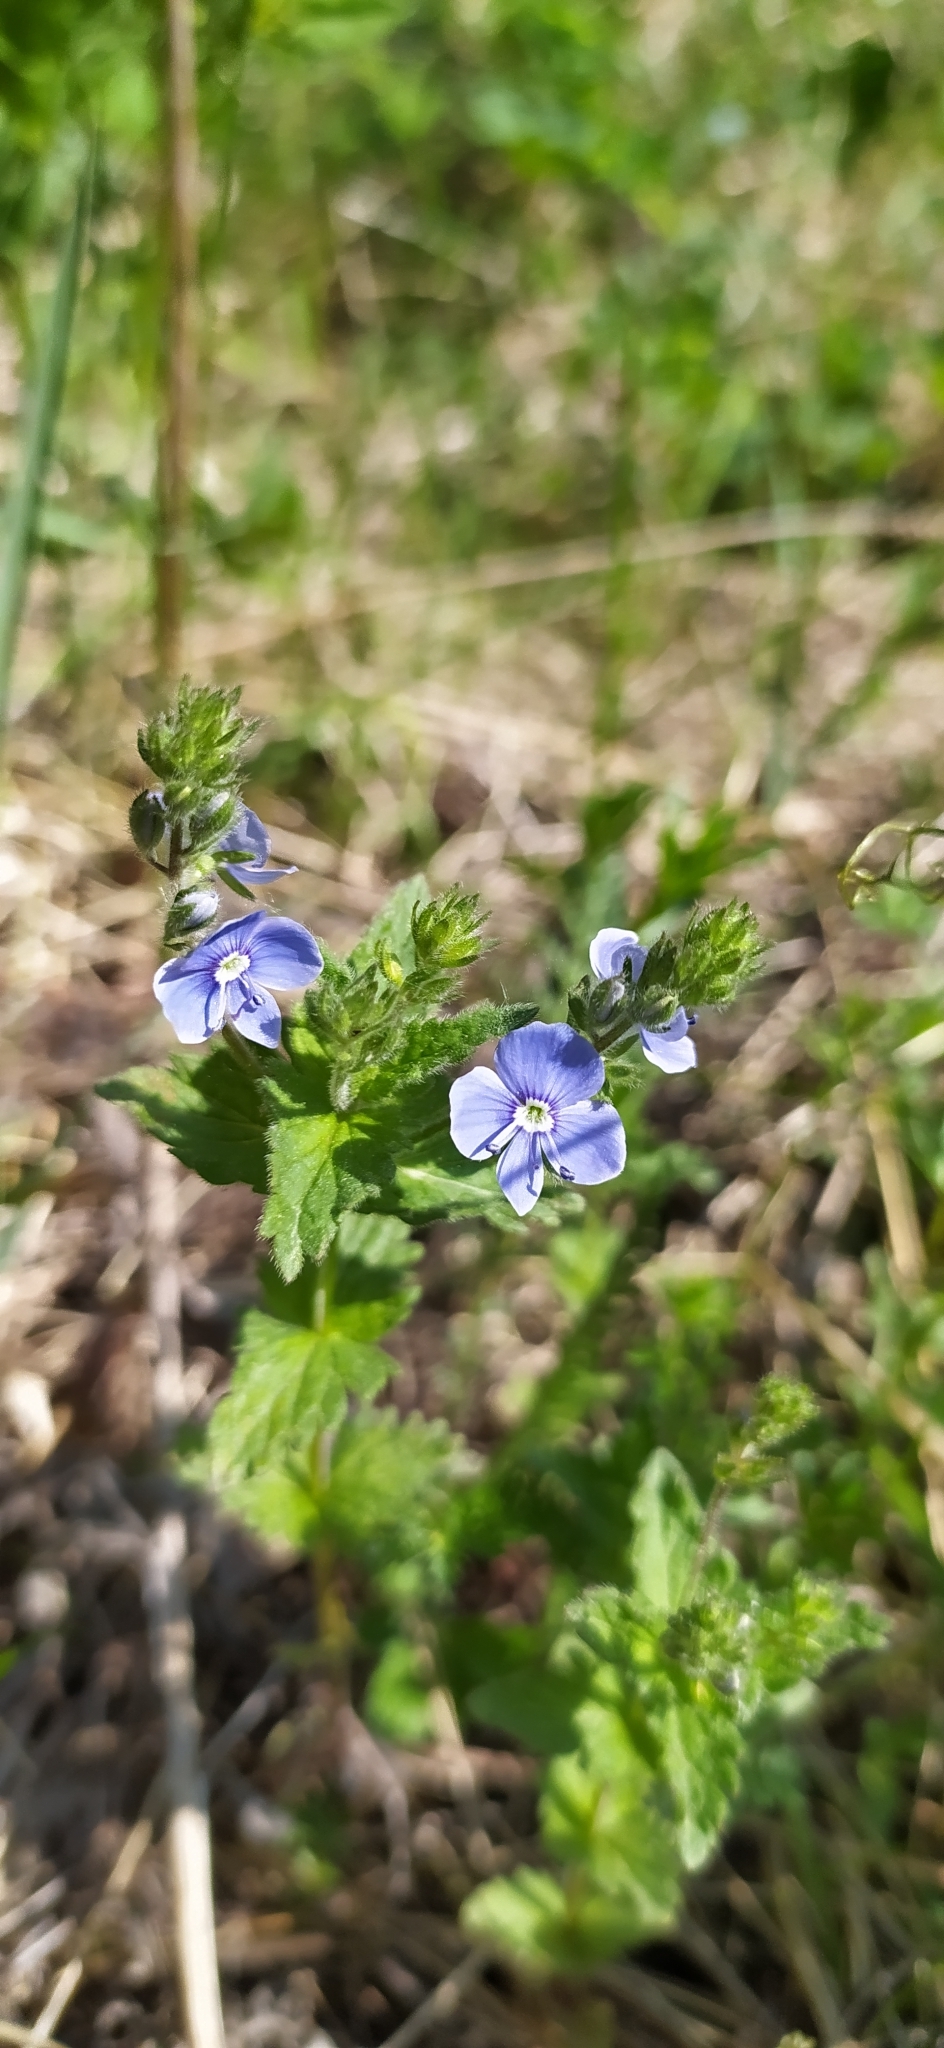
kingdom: Plantae
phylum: Tracheophyta
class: Magnoliopsida
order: Lamiales
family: Plantaginaceae
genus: Veronica
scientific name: Veronica chamaedrys
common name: Germander speedwell
